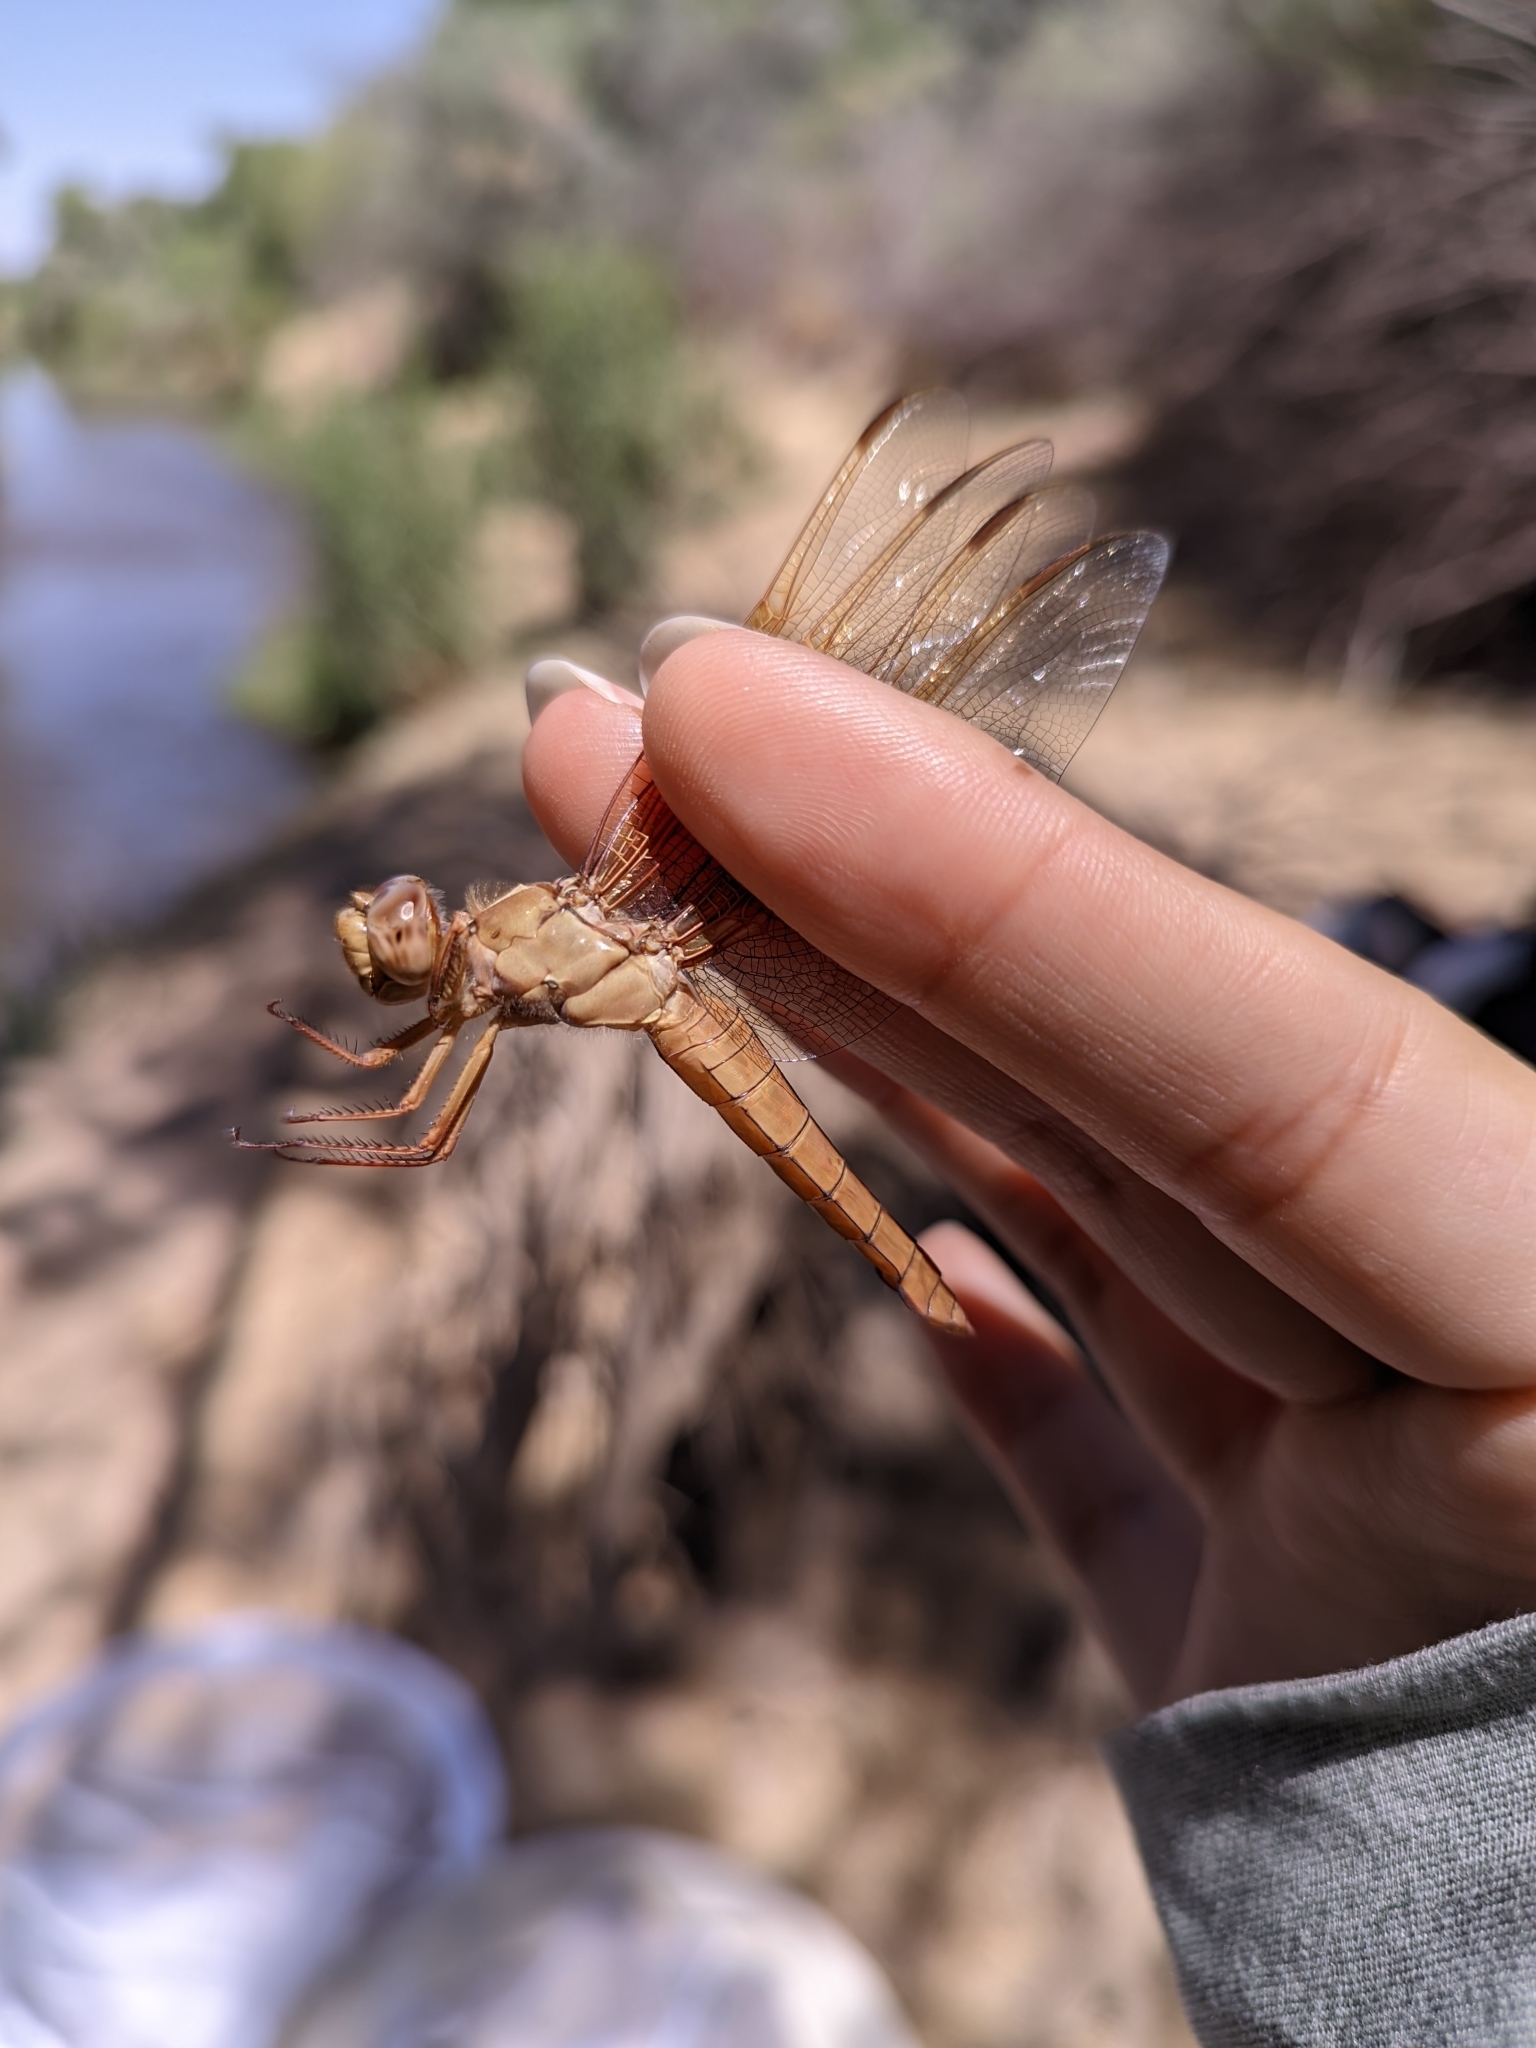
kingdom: Animalia
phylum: Arthropoda
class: Insecta
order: Odonata
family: Libellulidae
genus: Libellula
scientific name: Libellula saturata
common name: Flame skimmer
